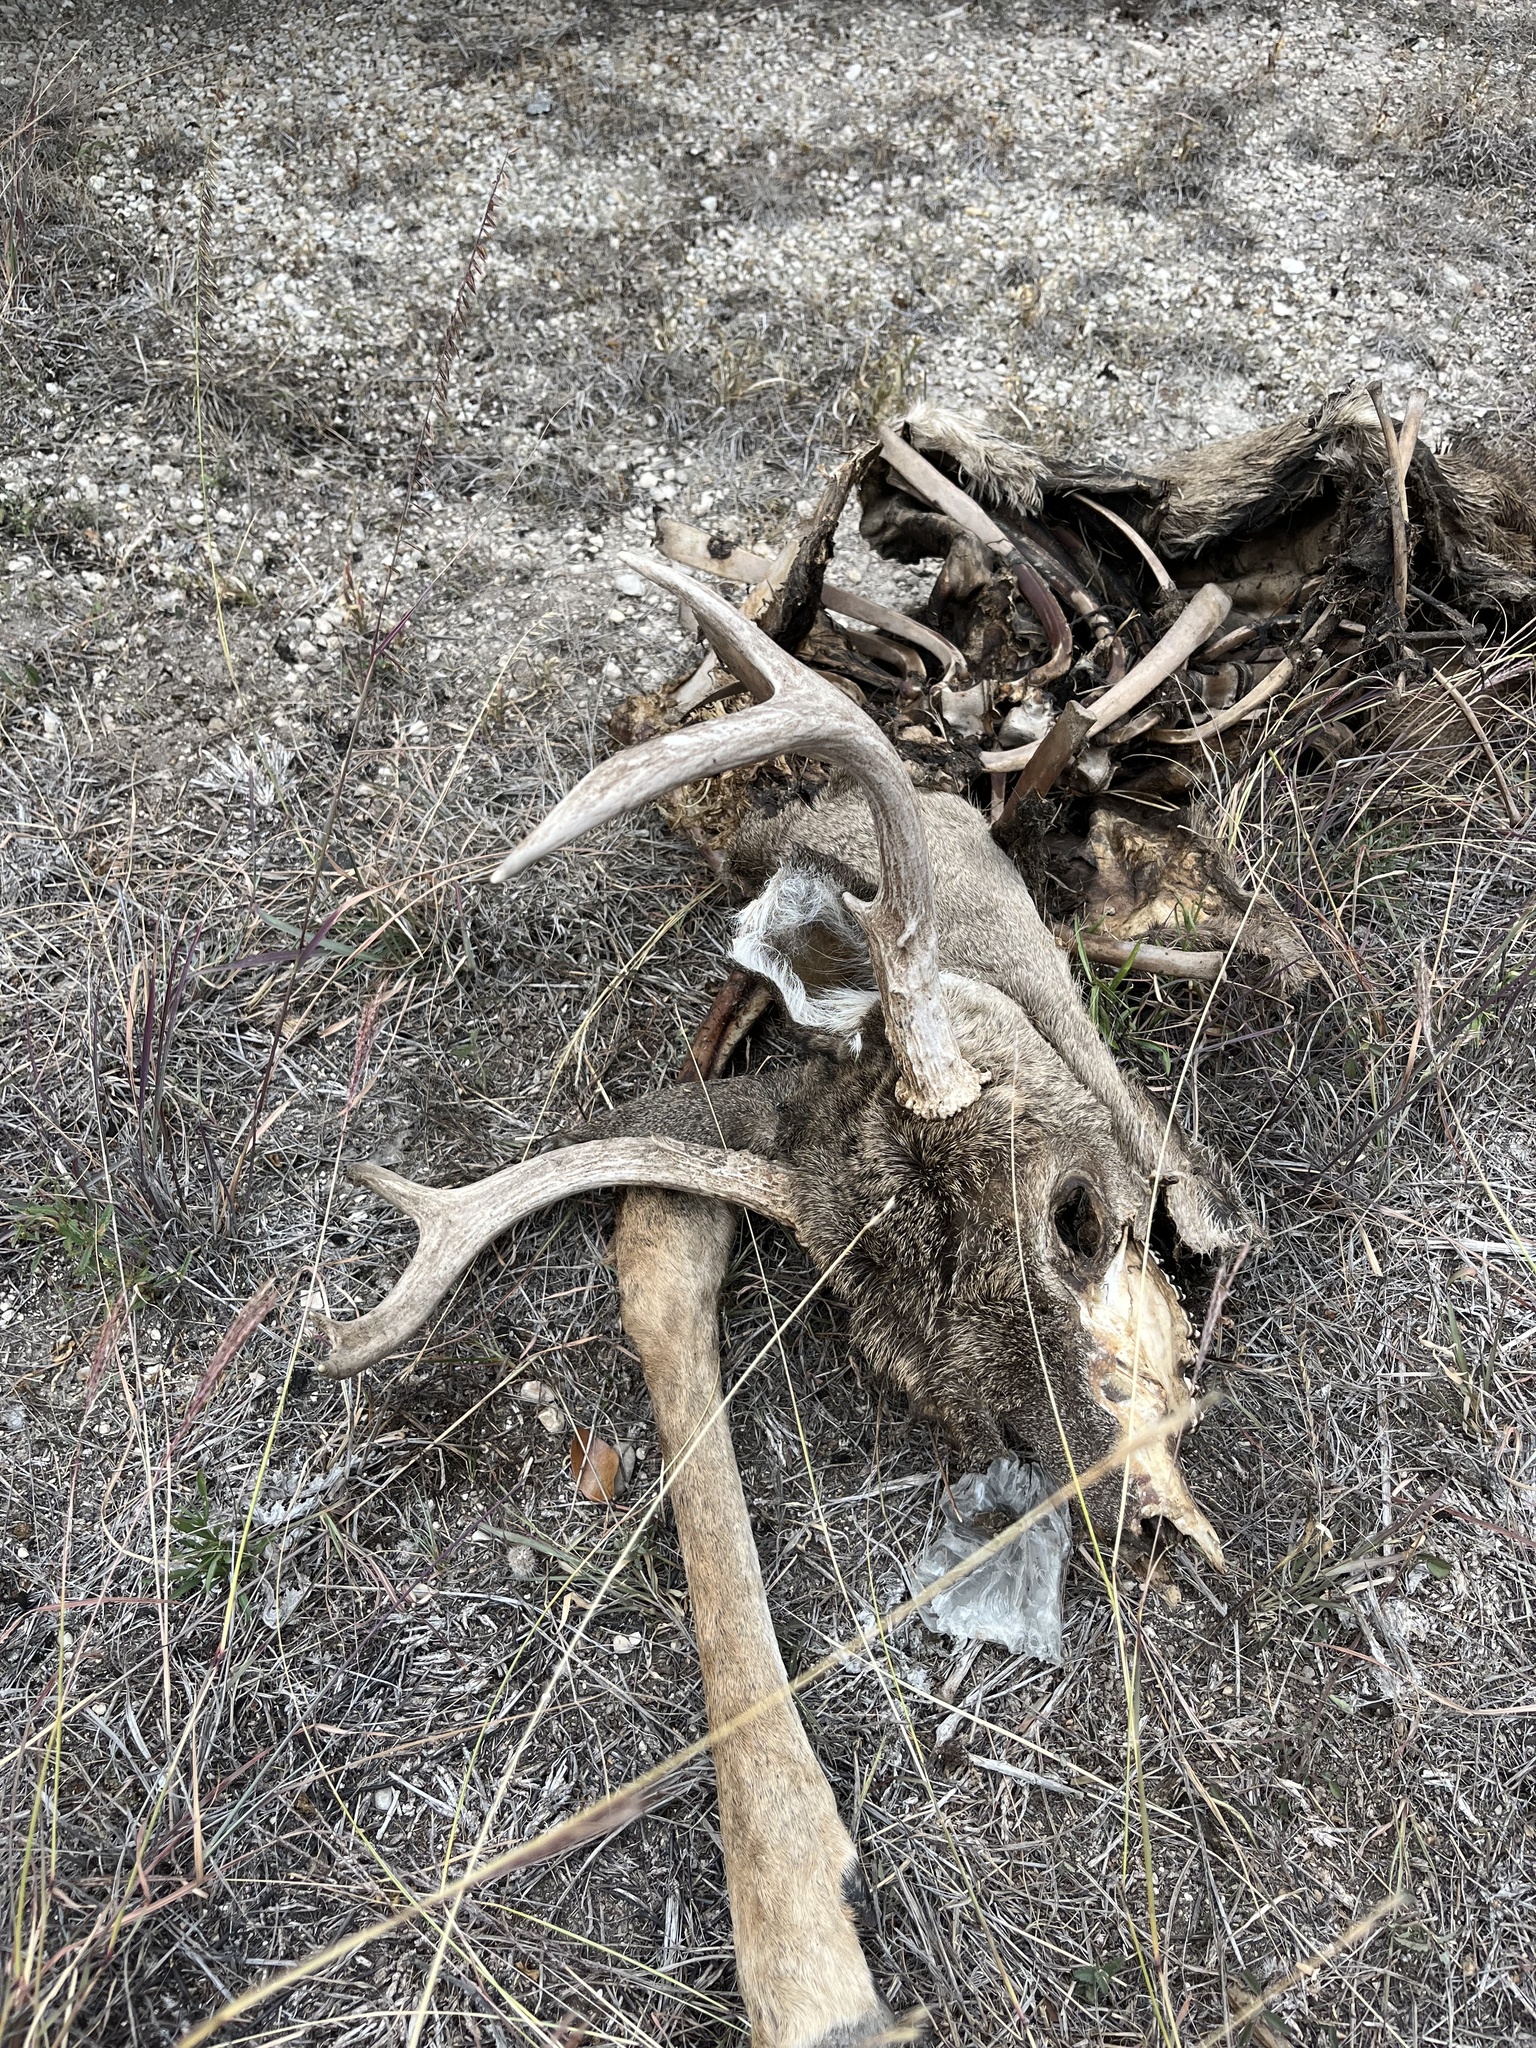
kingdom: Animalia
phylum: Chordata
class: Mammalia
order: Artiodactyla
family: Cervidae
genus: Odocoileus
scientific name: Odocoileus virginianus
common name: White-tailed deer
